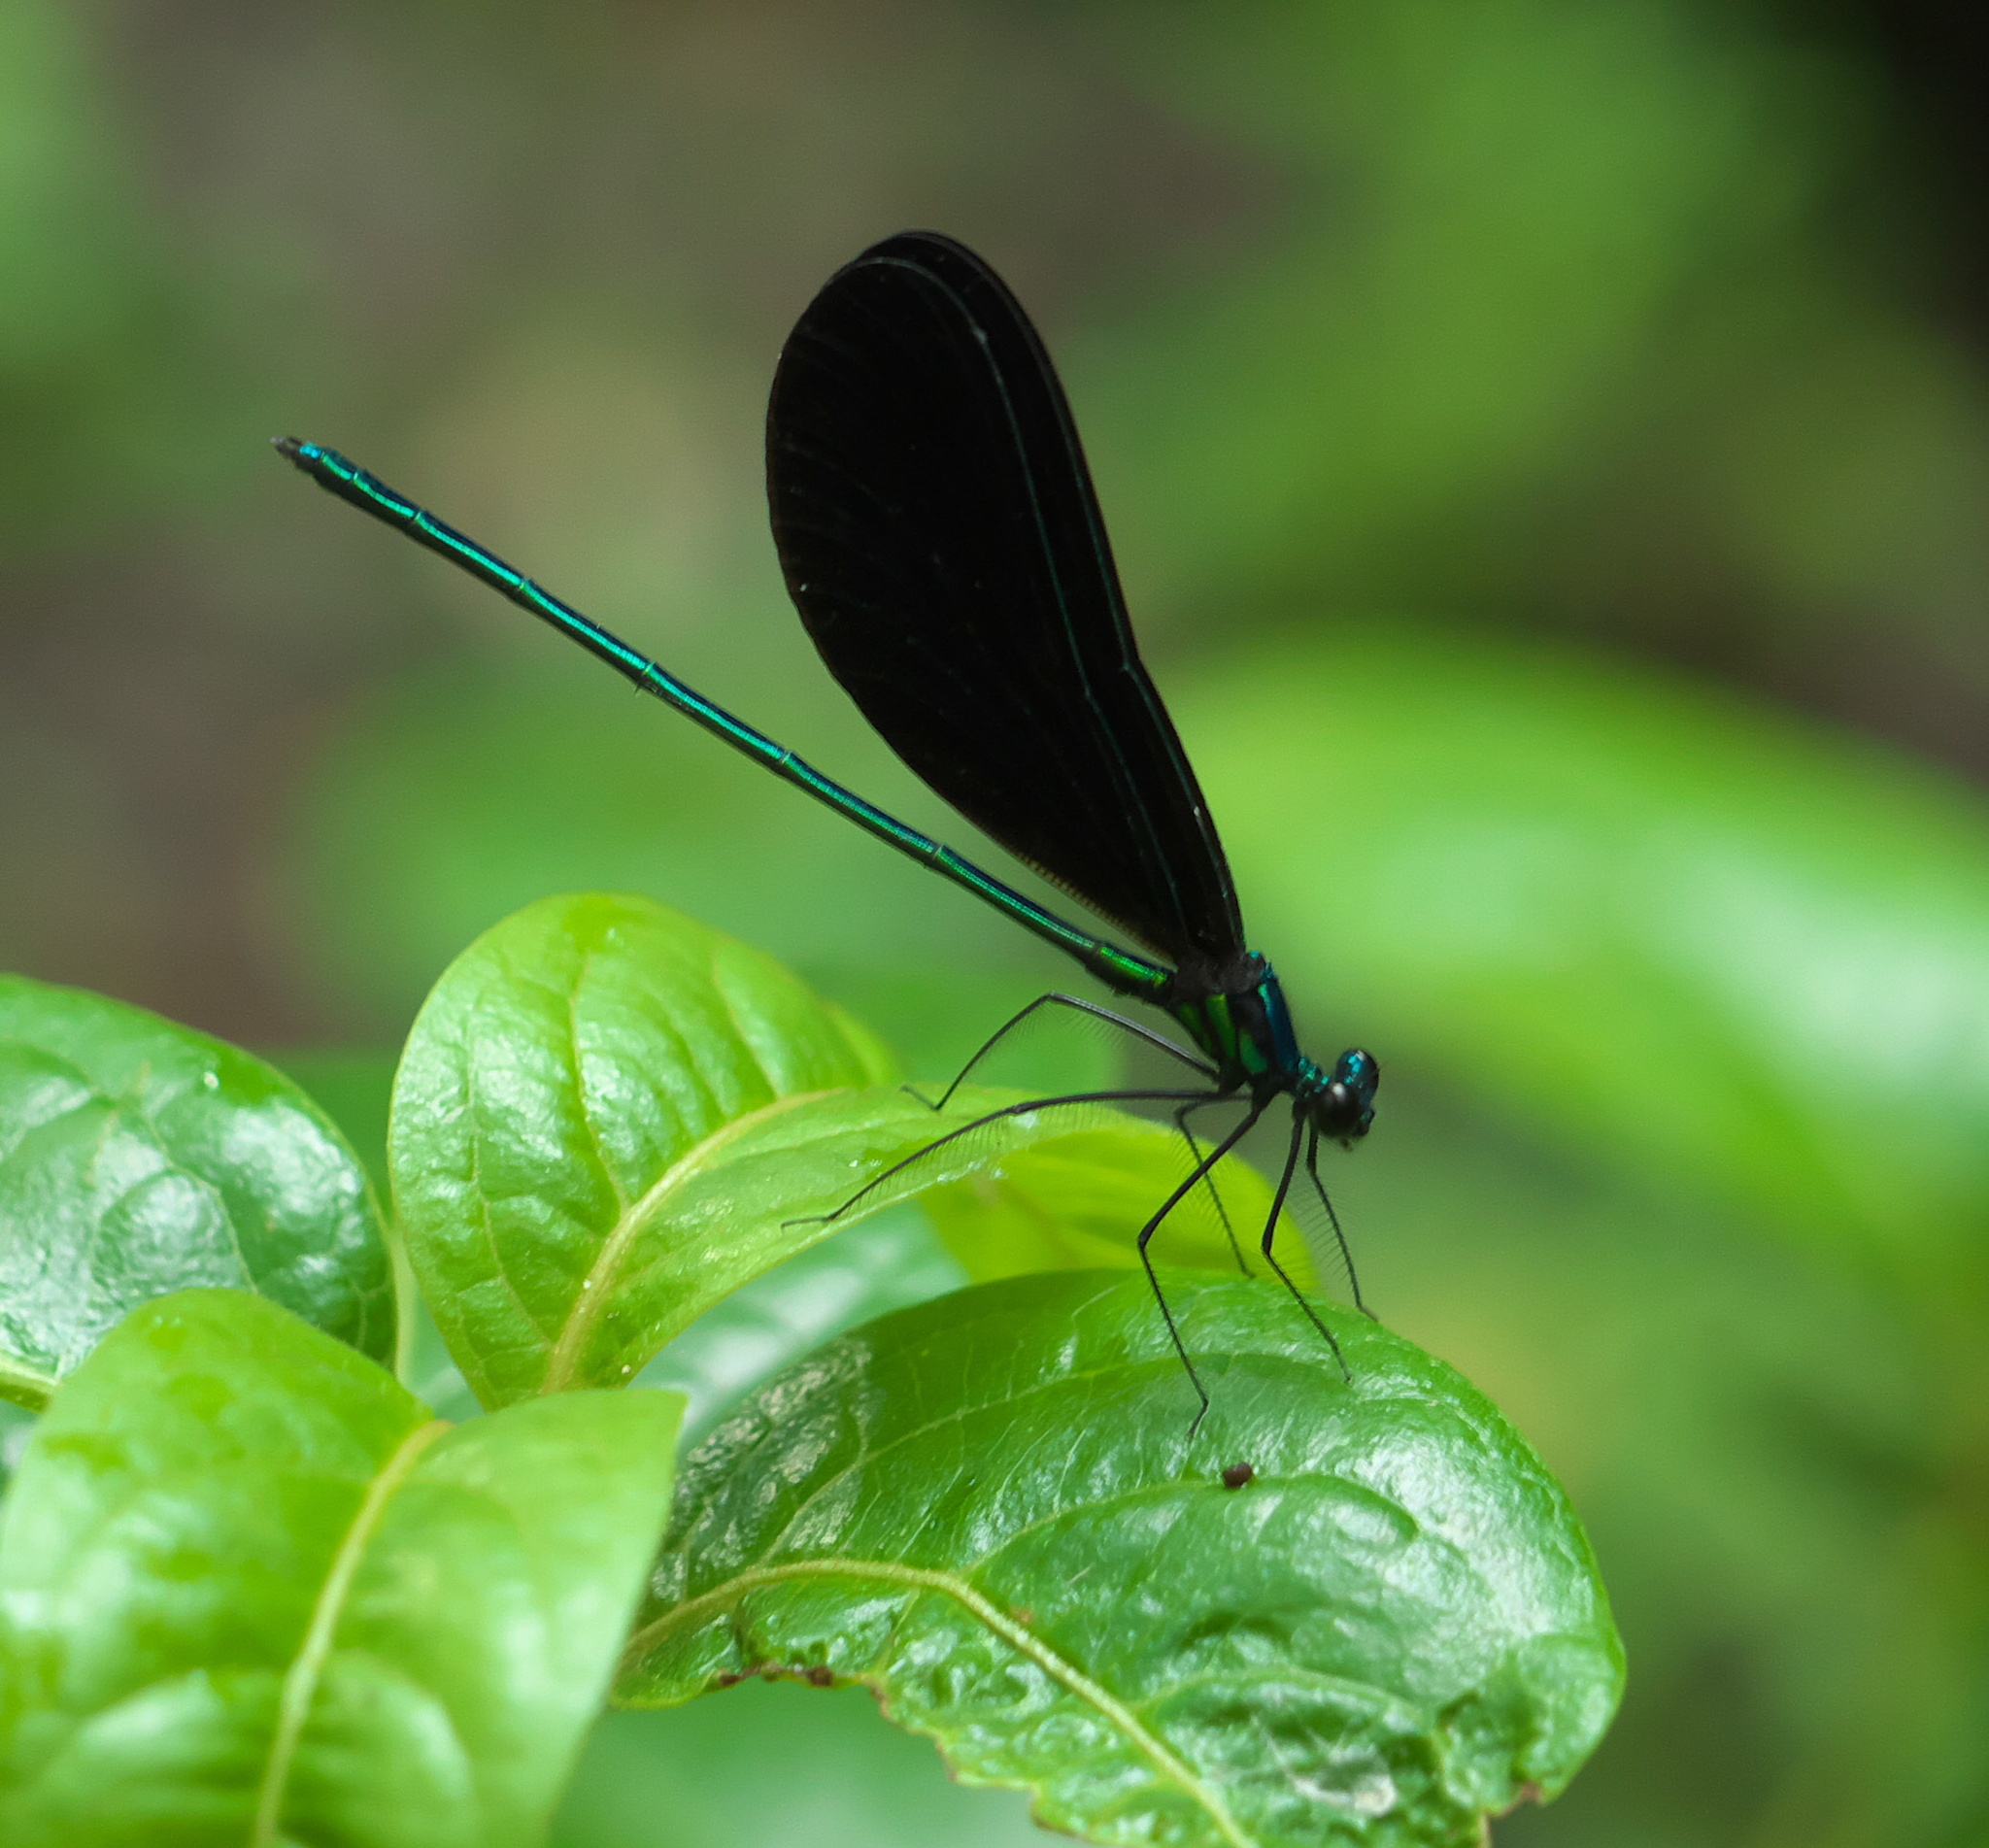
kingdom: Animalia
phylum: Arthropoda
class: Insecta
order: Odonata
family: Calopterygidae
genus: Calopteryx
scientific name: Calopteryx maculata
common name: Ebony jewelwing
